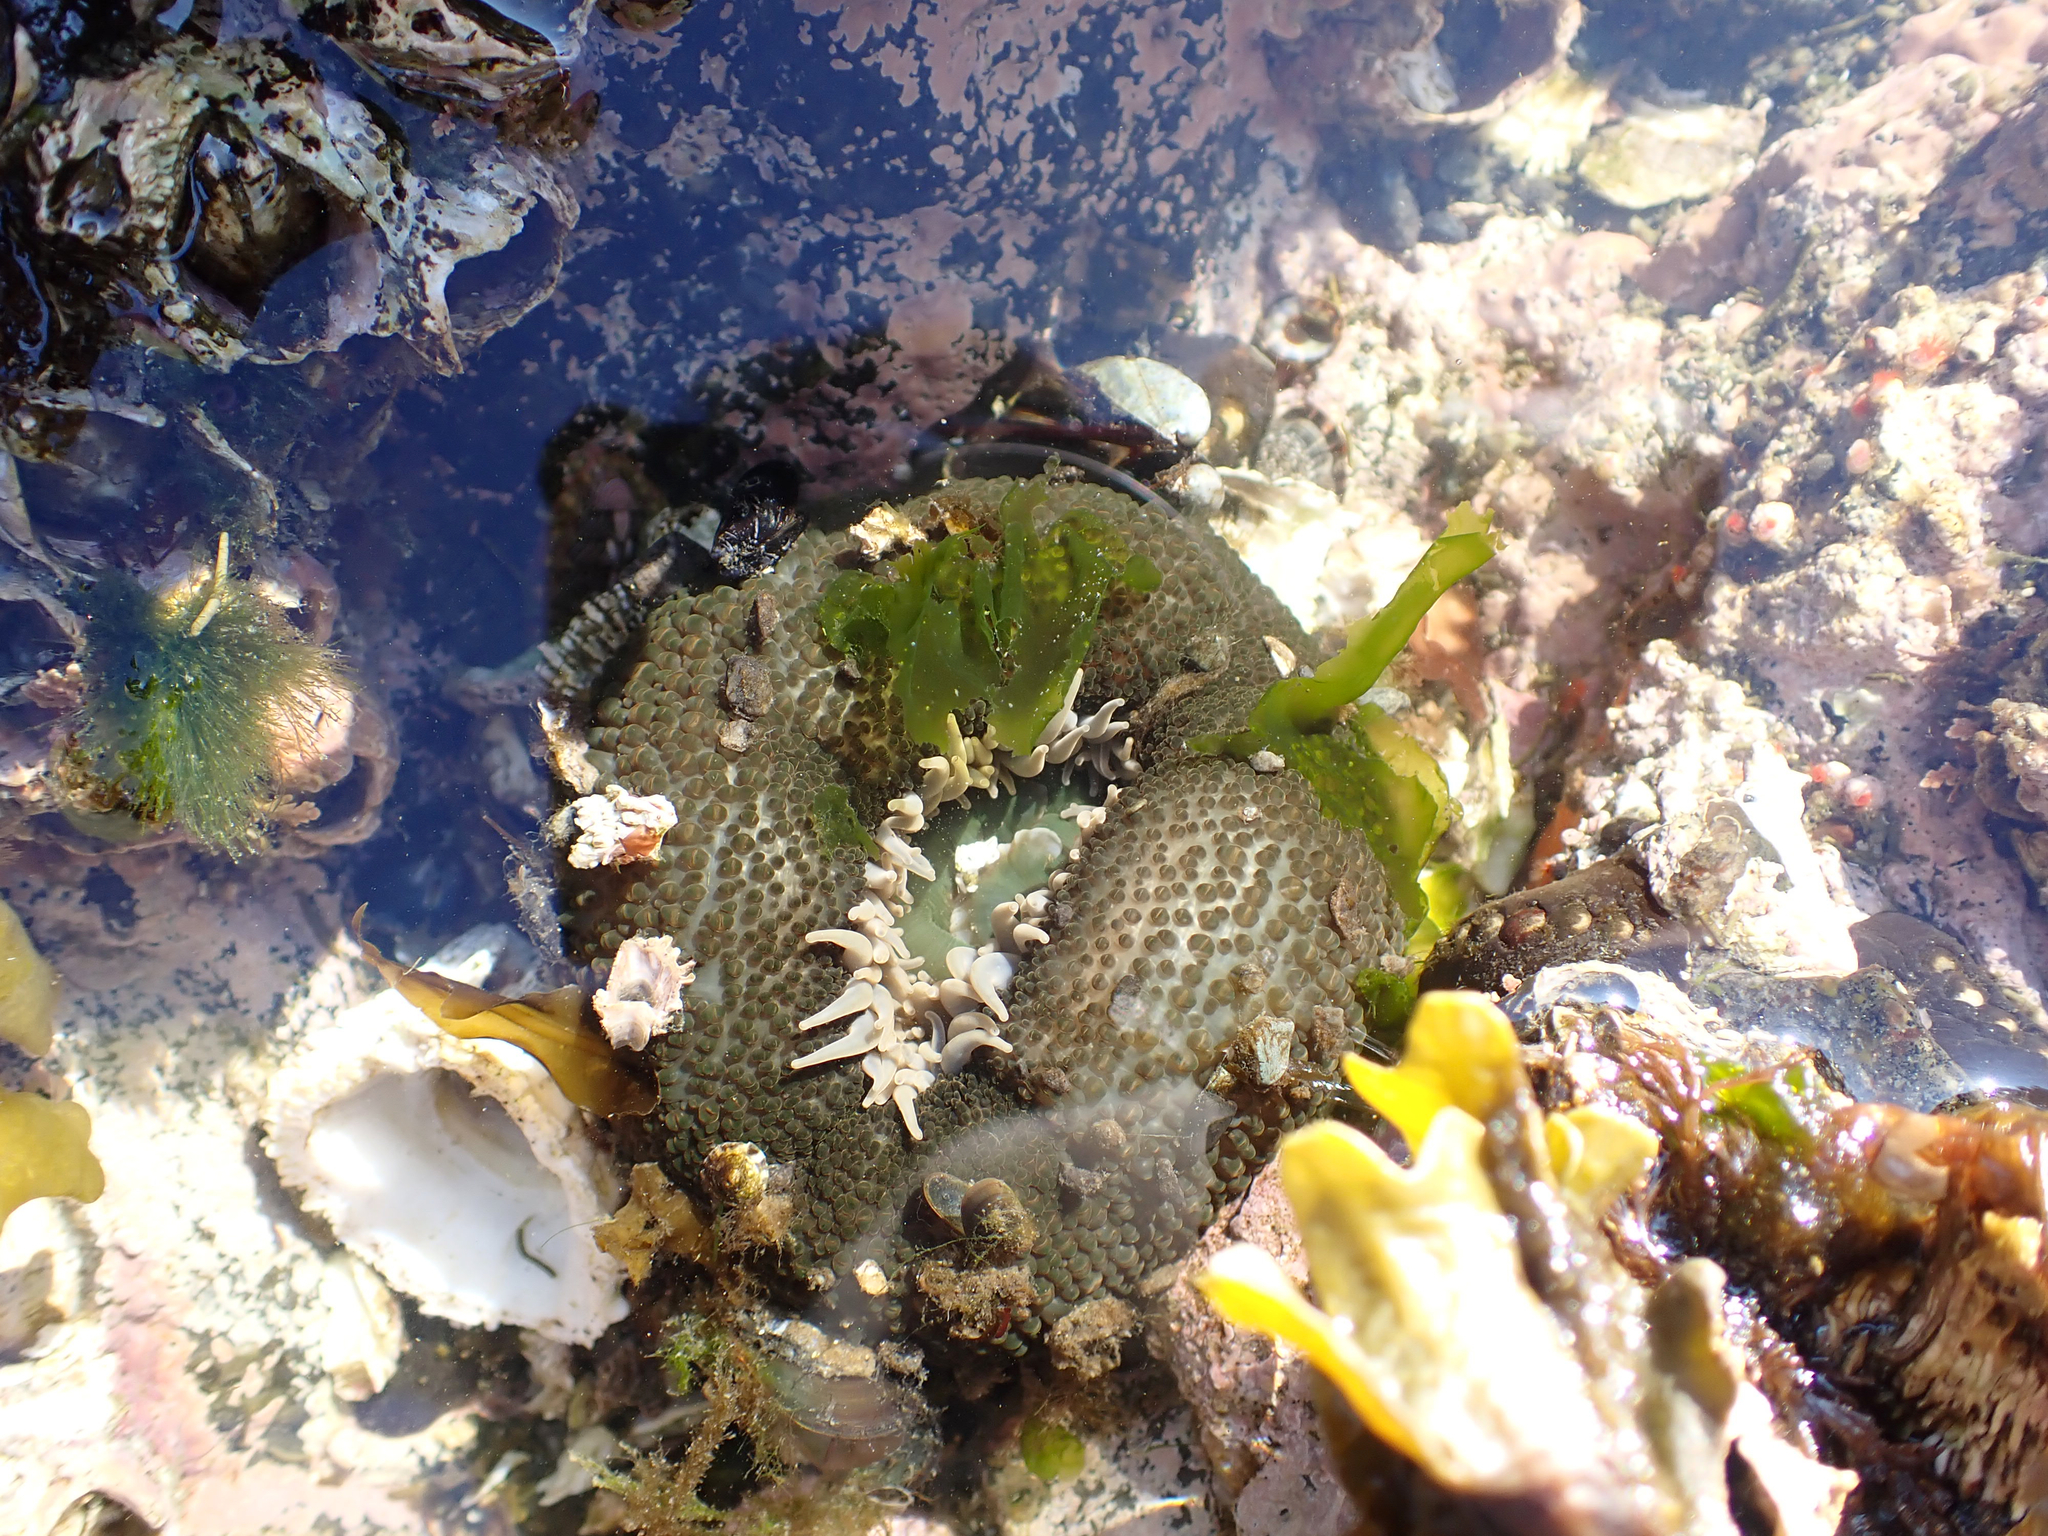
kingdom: Animalia
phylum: Cnidaria
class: Anthozoa
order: Actiniaria
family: Actiniidae
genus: Anthopleura
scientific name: Anthopleura xanthogrammica
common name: Giant green anemone
